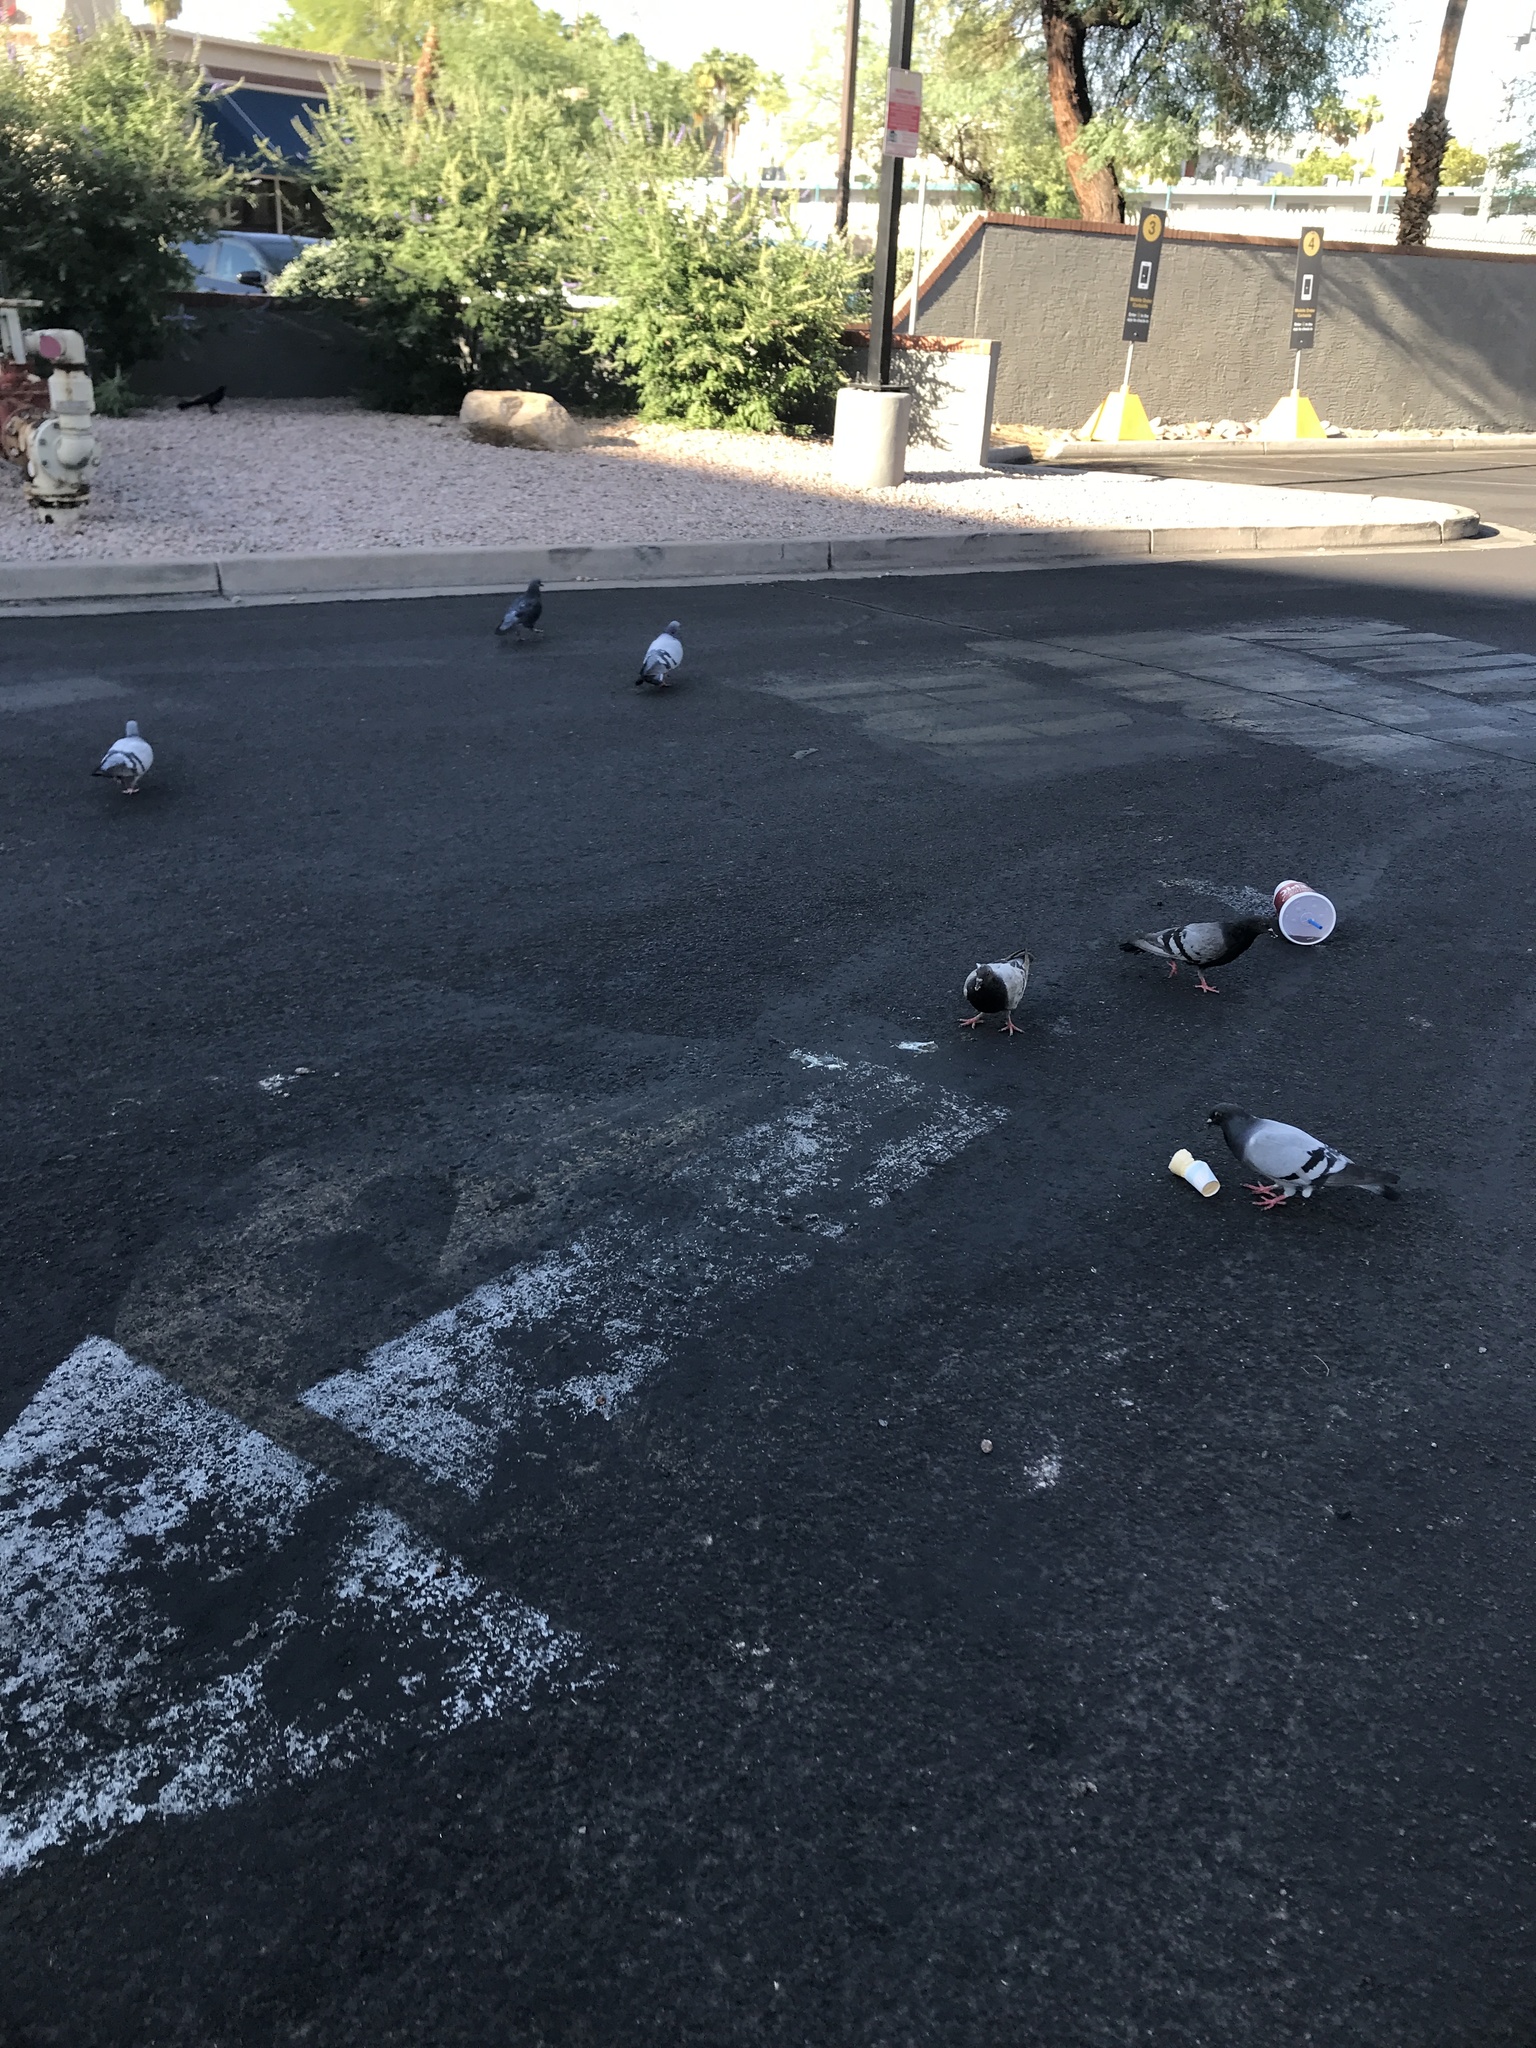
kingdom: Animalia
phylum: Chordata
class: Aves
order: Columbiformes
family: Columbidae
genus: Columba
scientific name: Columba livia
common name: Rock pigeon
